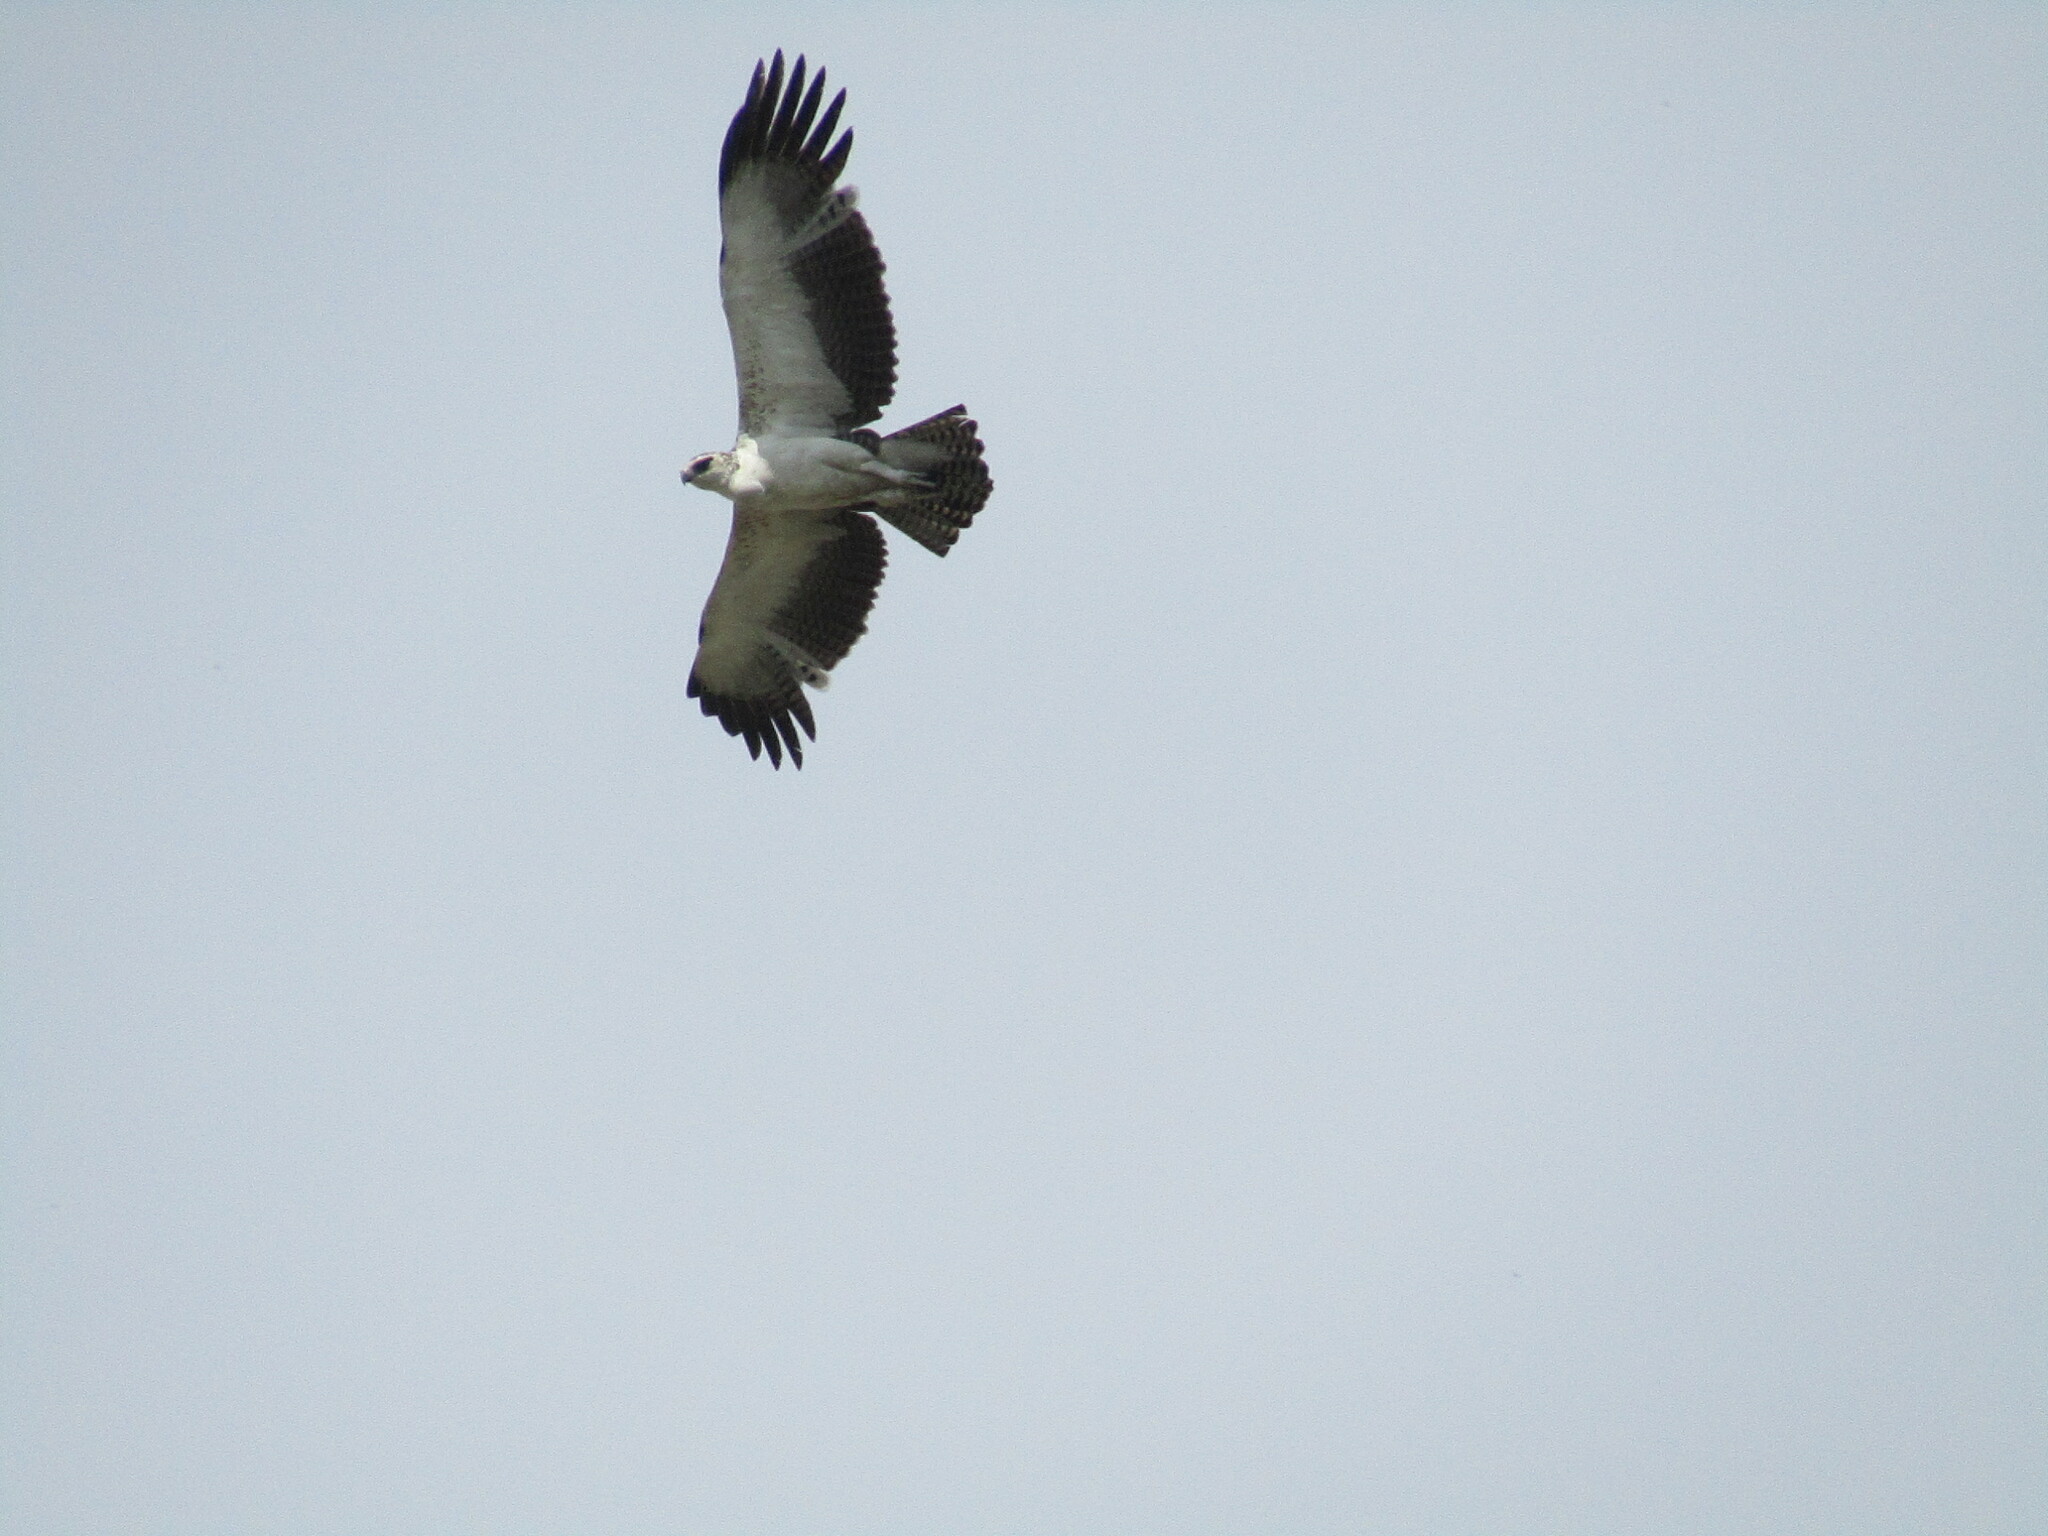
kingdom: Animalia
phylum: Chordata
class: Aves
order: Accipitriformes
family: Accipitridae
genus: Polemaetus
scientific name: Polemaetus bellicosus
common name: Martial eagle
